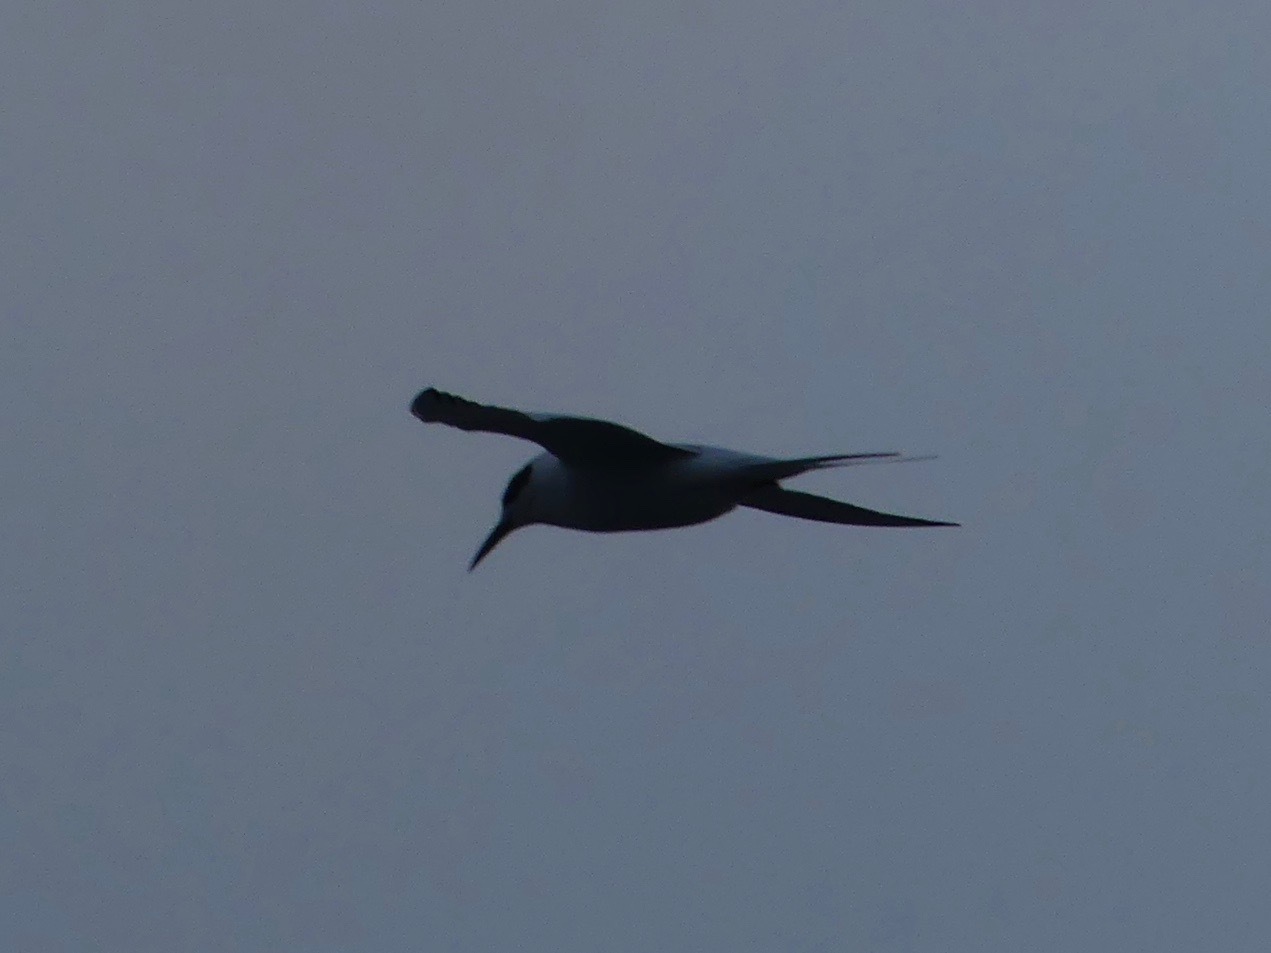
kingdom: Animalia
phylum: Chordata
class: Aves
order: Charadriiformes
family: Laridae
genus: Sterna
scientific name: Sterna forsteri
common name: Forster's tern
